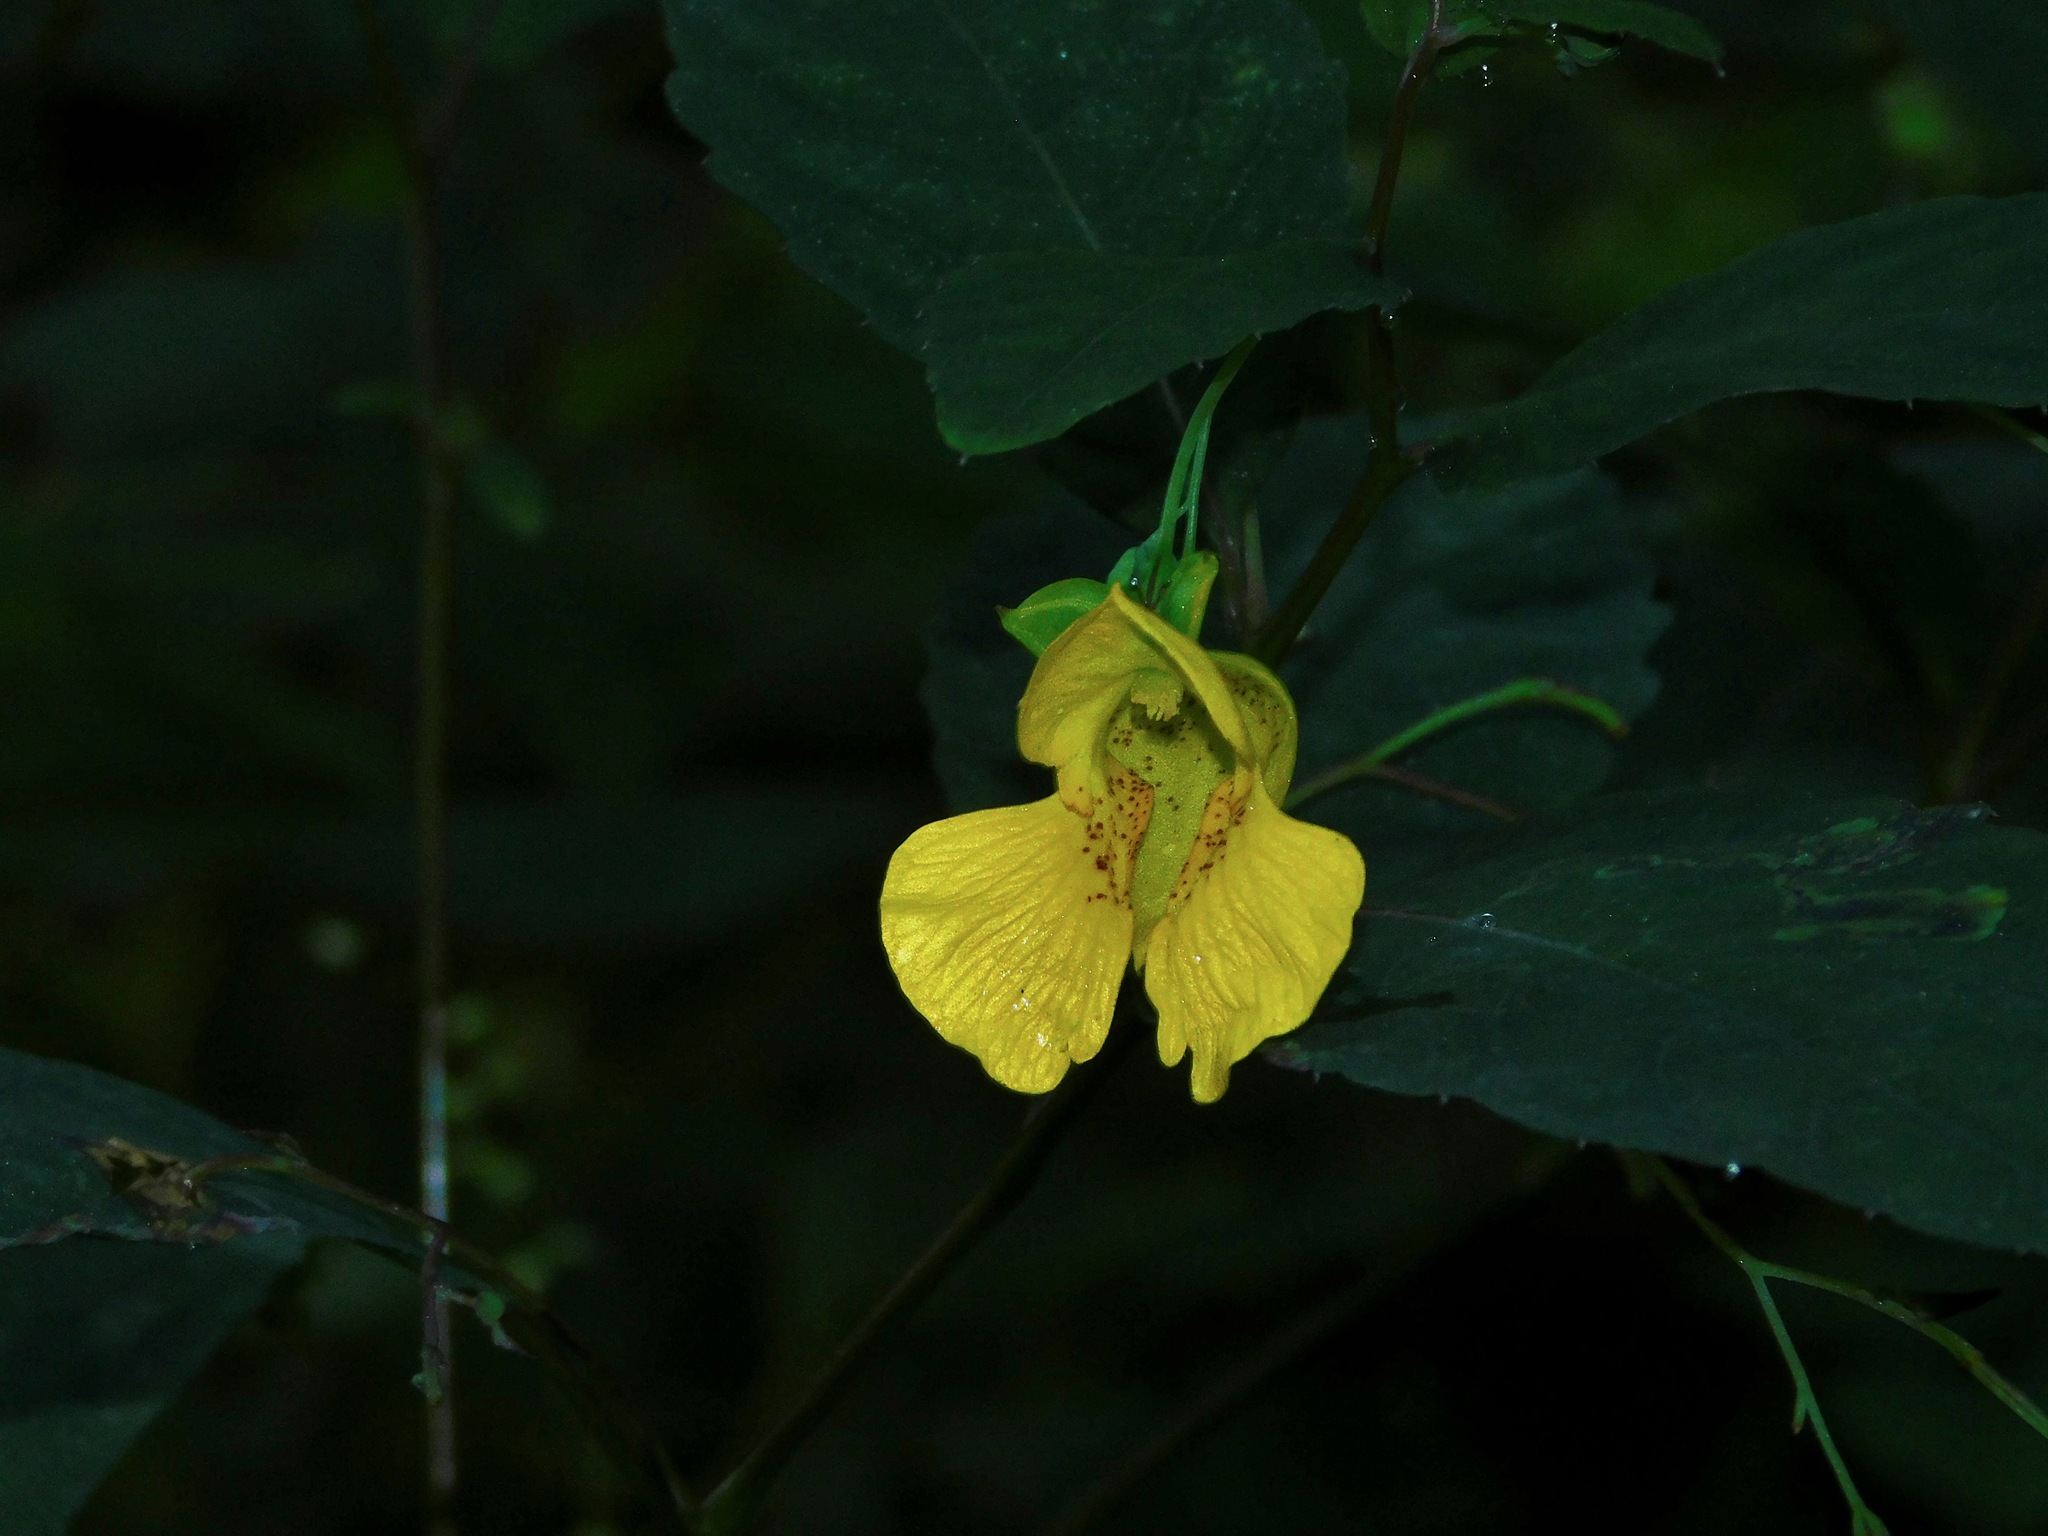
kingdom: Plantae
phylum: Tracheophyta
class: Magnoliopsida
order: Ericales
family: Balsaminaceae
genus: Impatiens
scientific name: Impatiens pallida
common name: Pale snapweed
